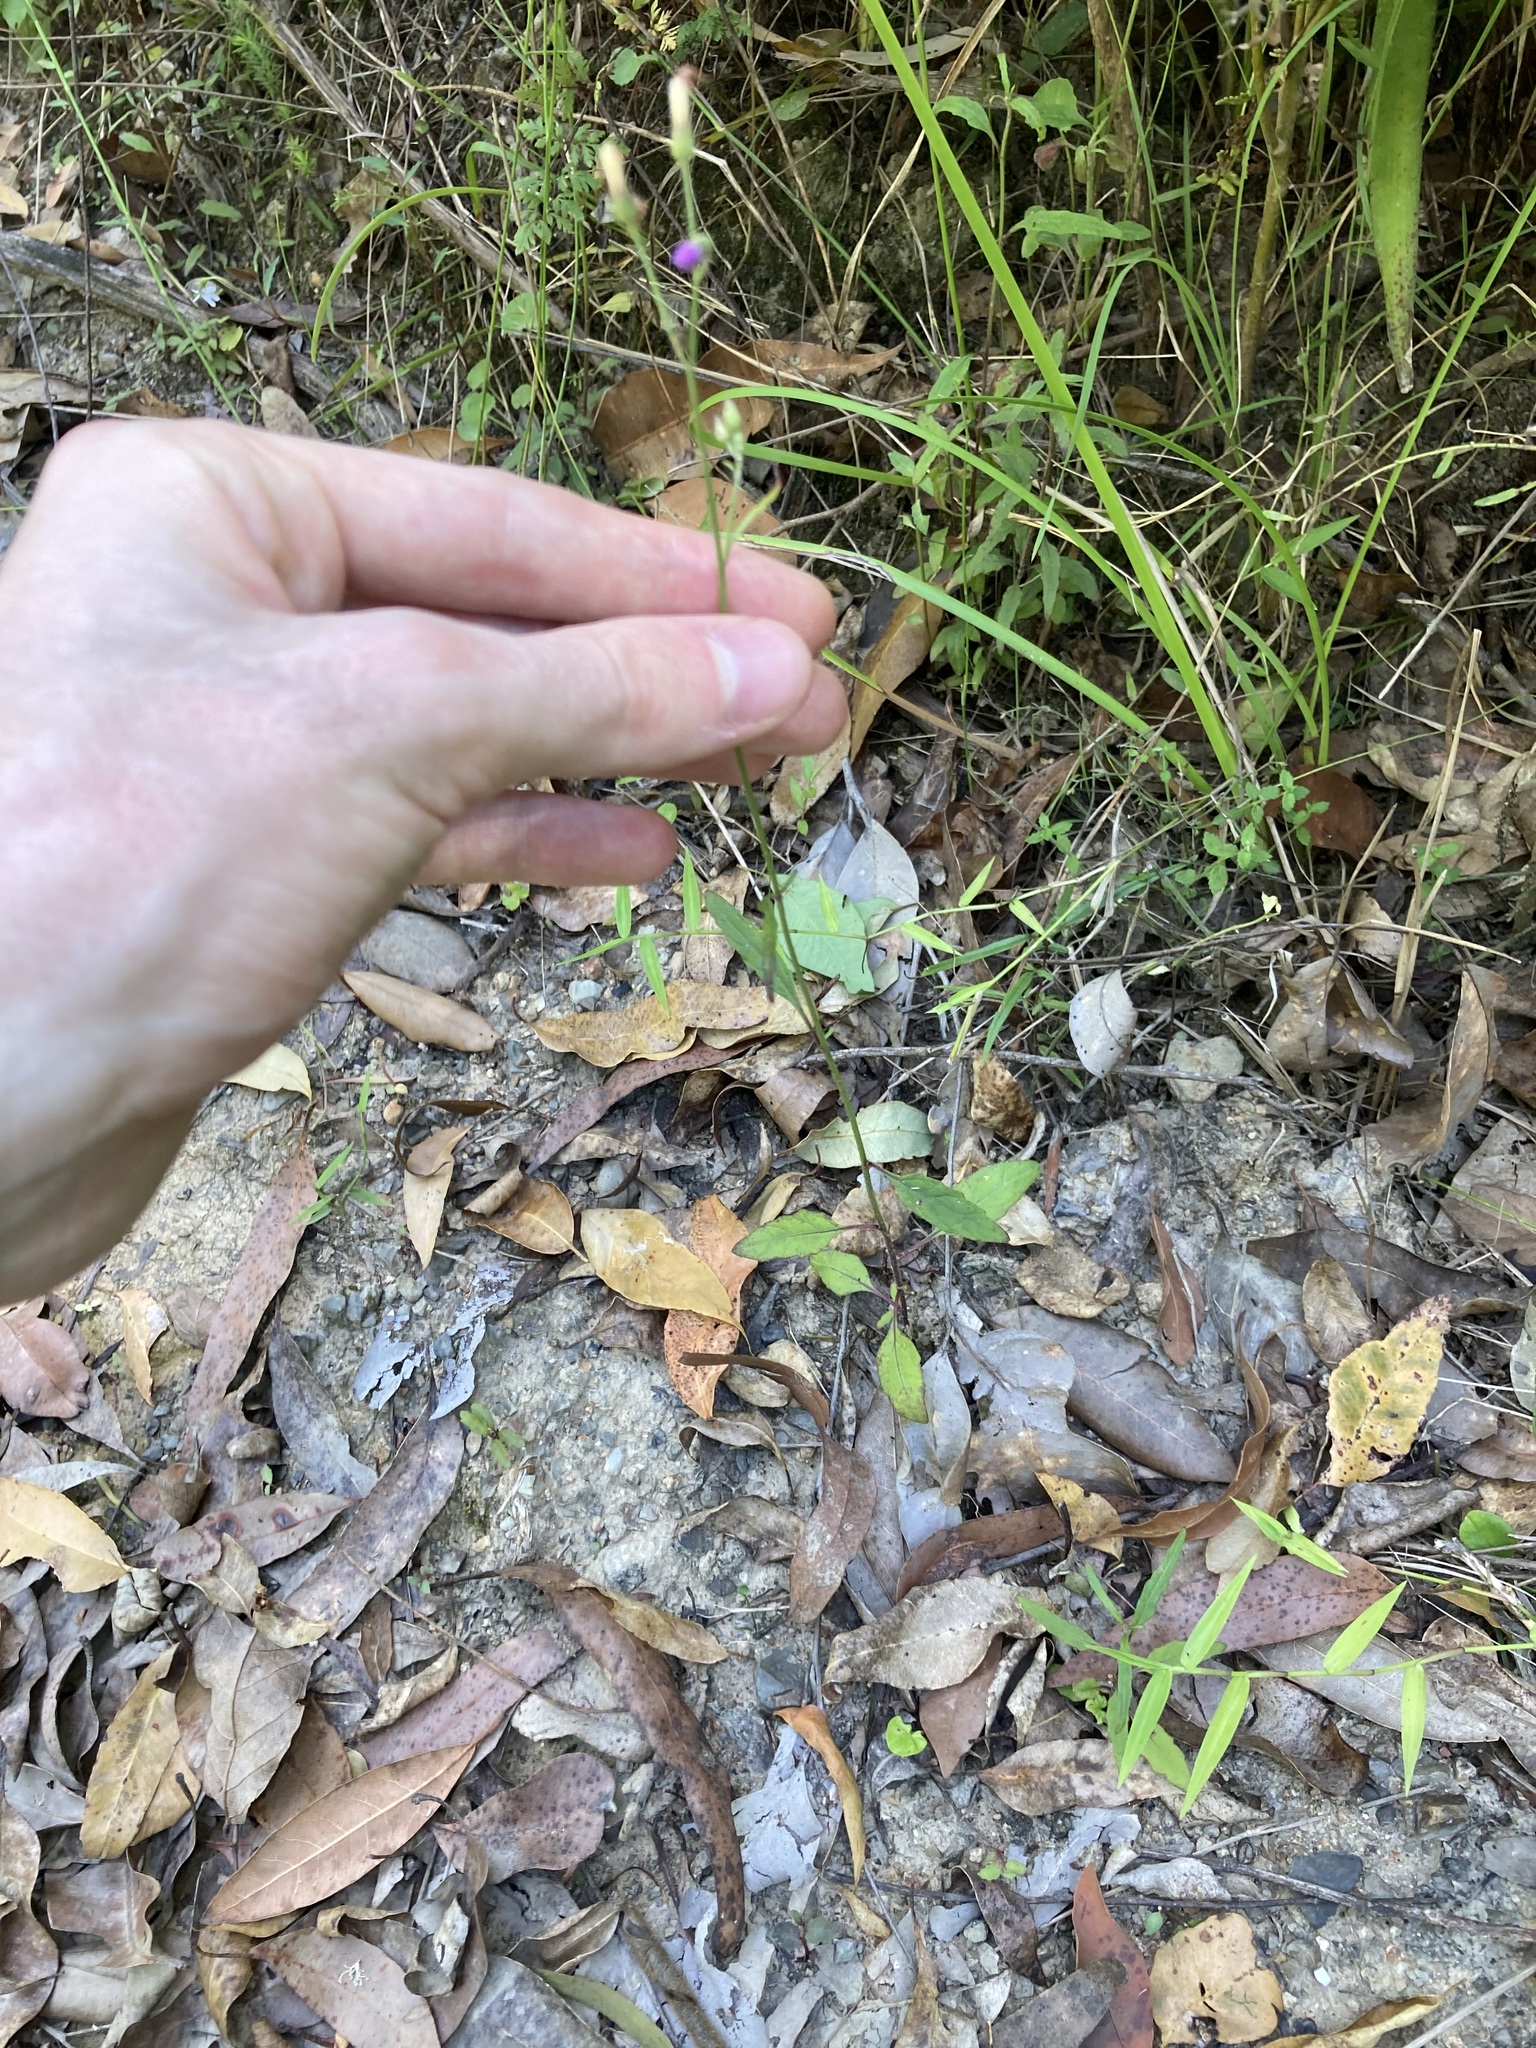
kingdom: Plantae
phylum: Tracheophyta
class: Magnoliopsida
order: Asterales
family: Asteraceae
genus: Cyanthillium
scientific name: Cyanthillium cinereum
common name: Little ironweed
